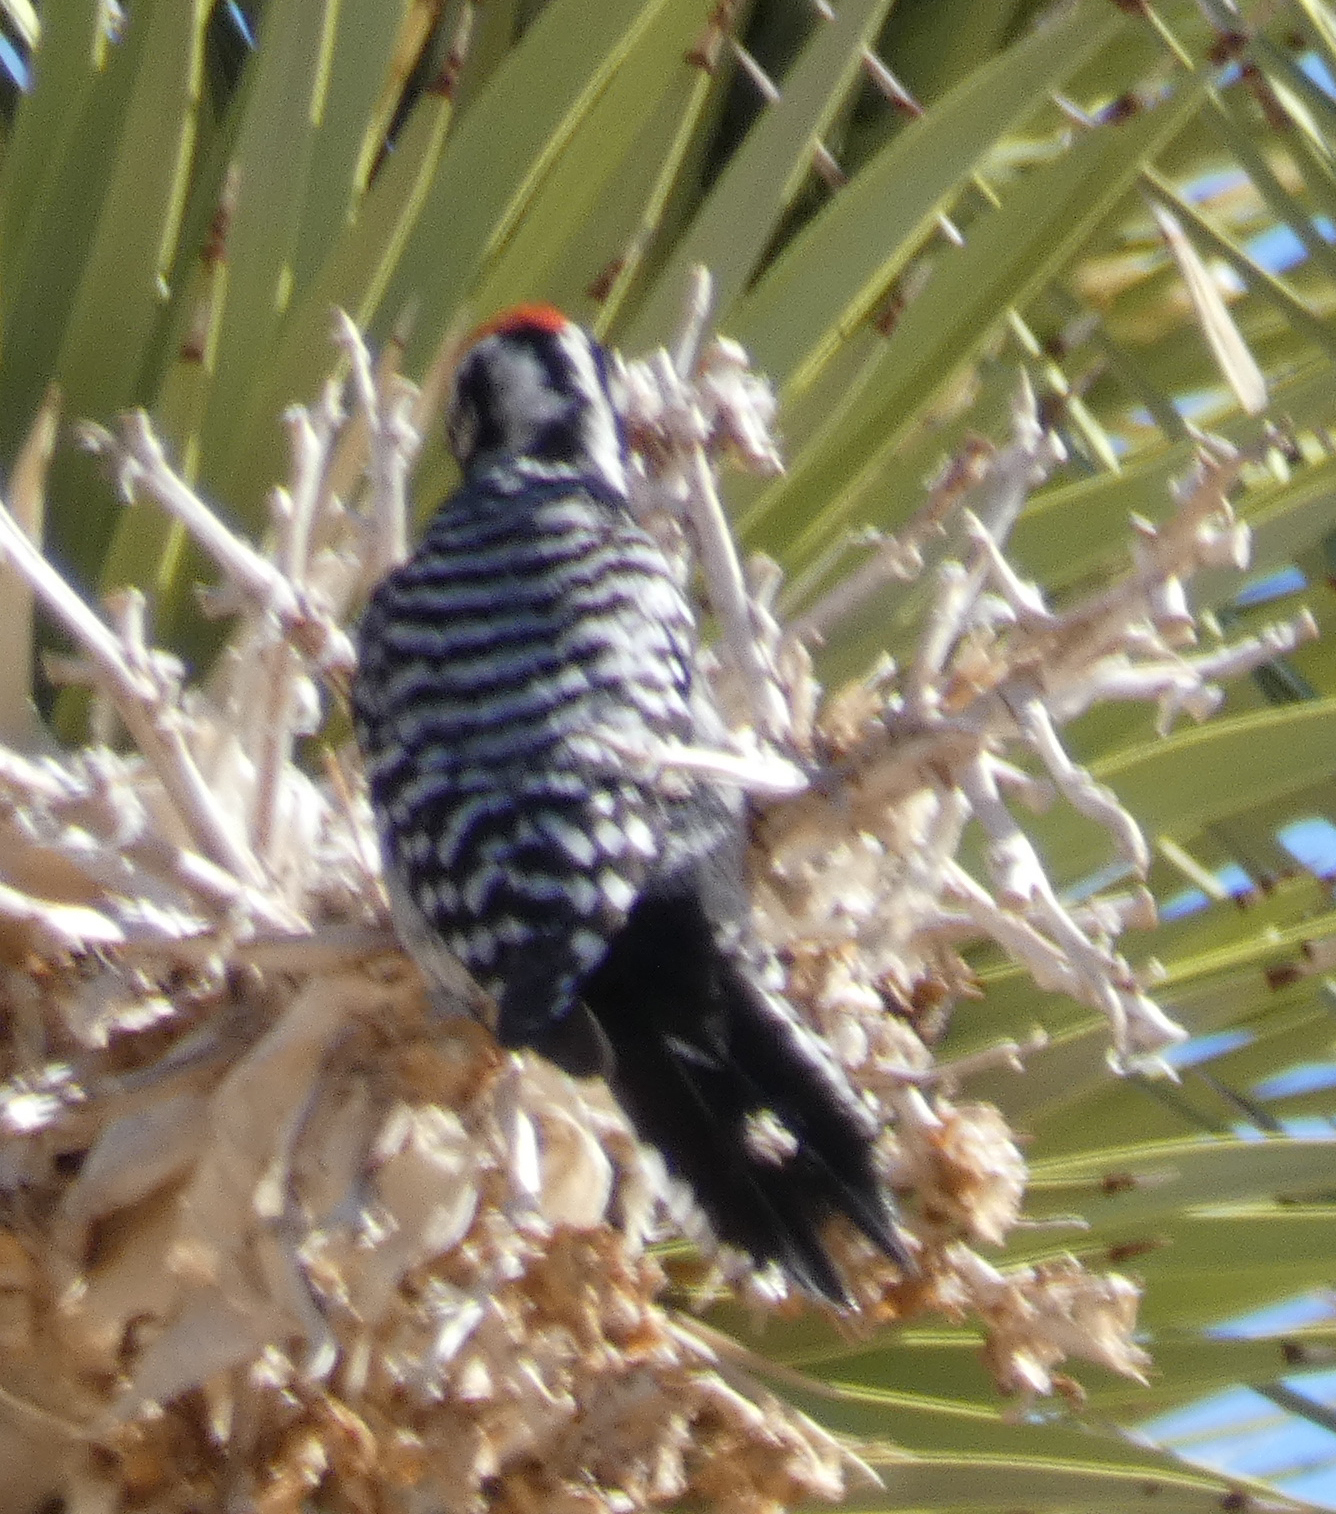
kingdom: Animalia
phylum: Chordata
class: Aves
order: Piciformes
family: Picidae
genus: Dryobates
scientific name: Dryobates scalaris
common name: Ladder-backed woodpecker
